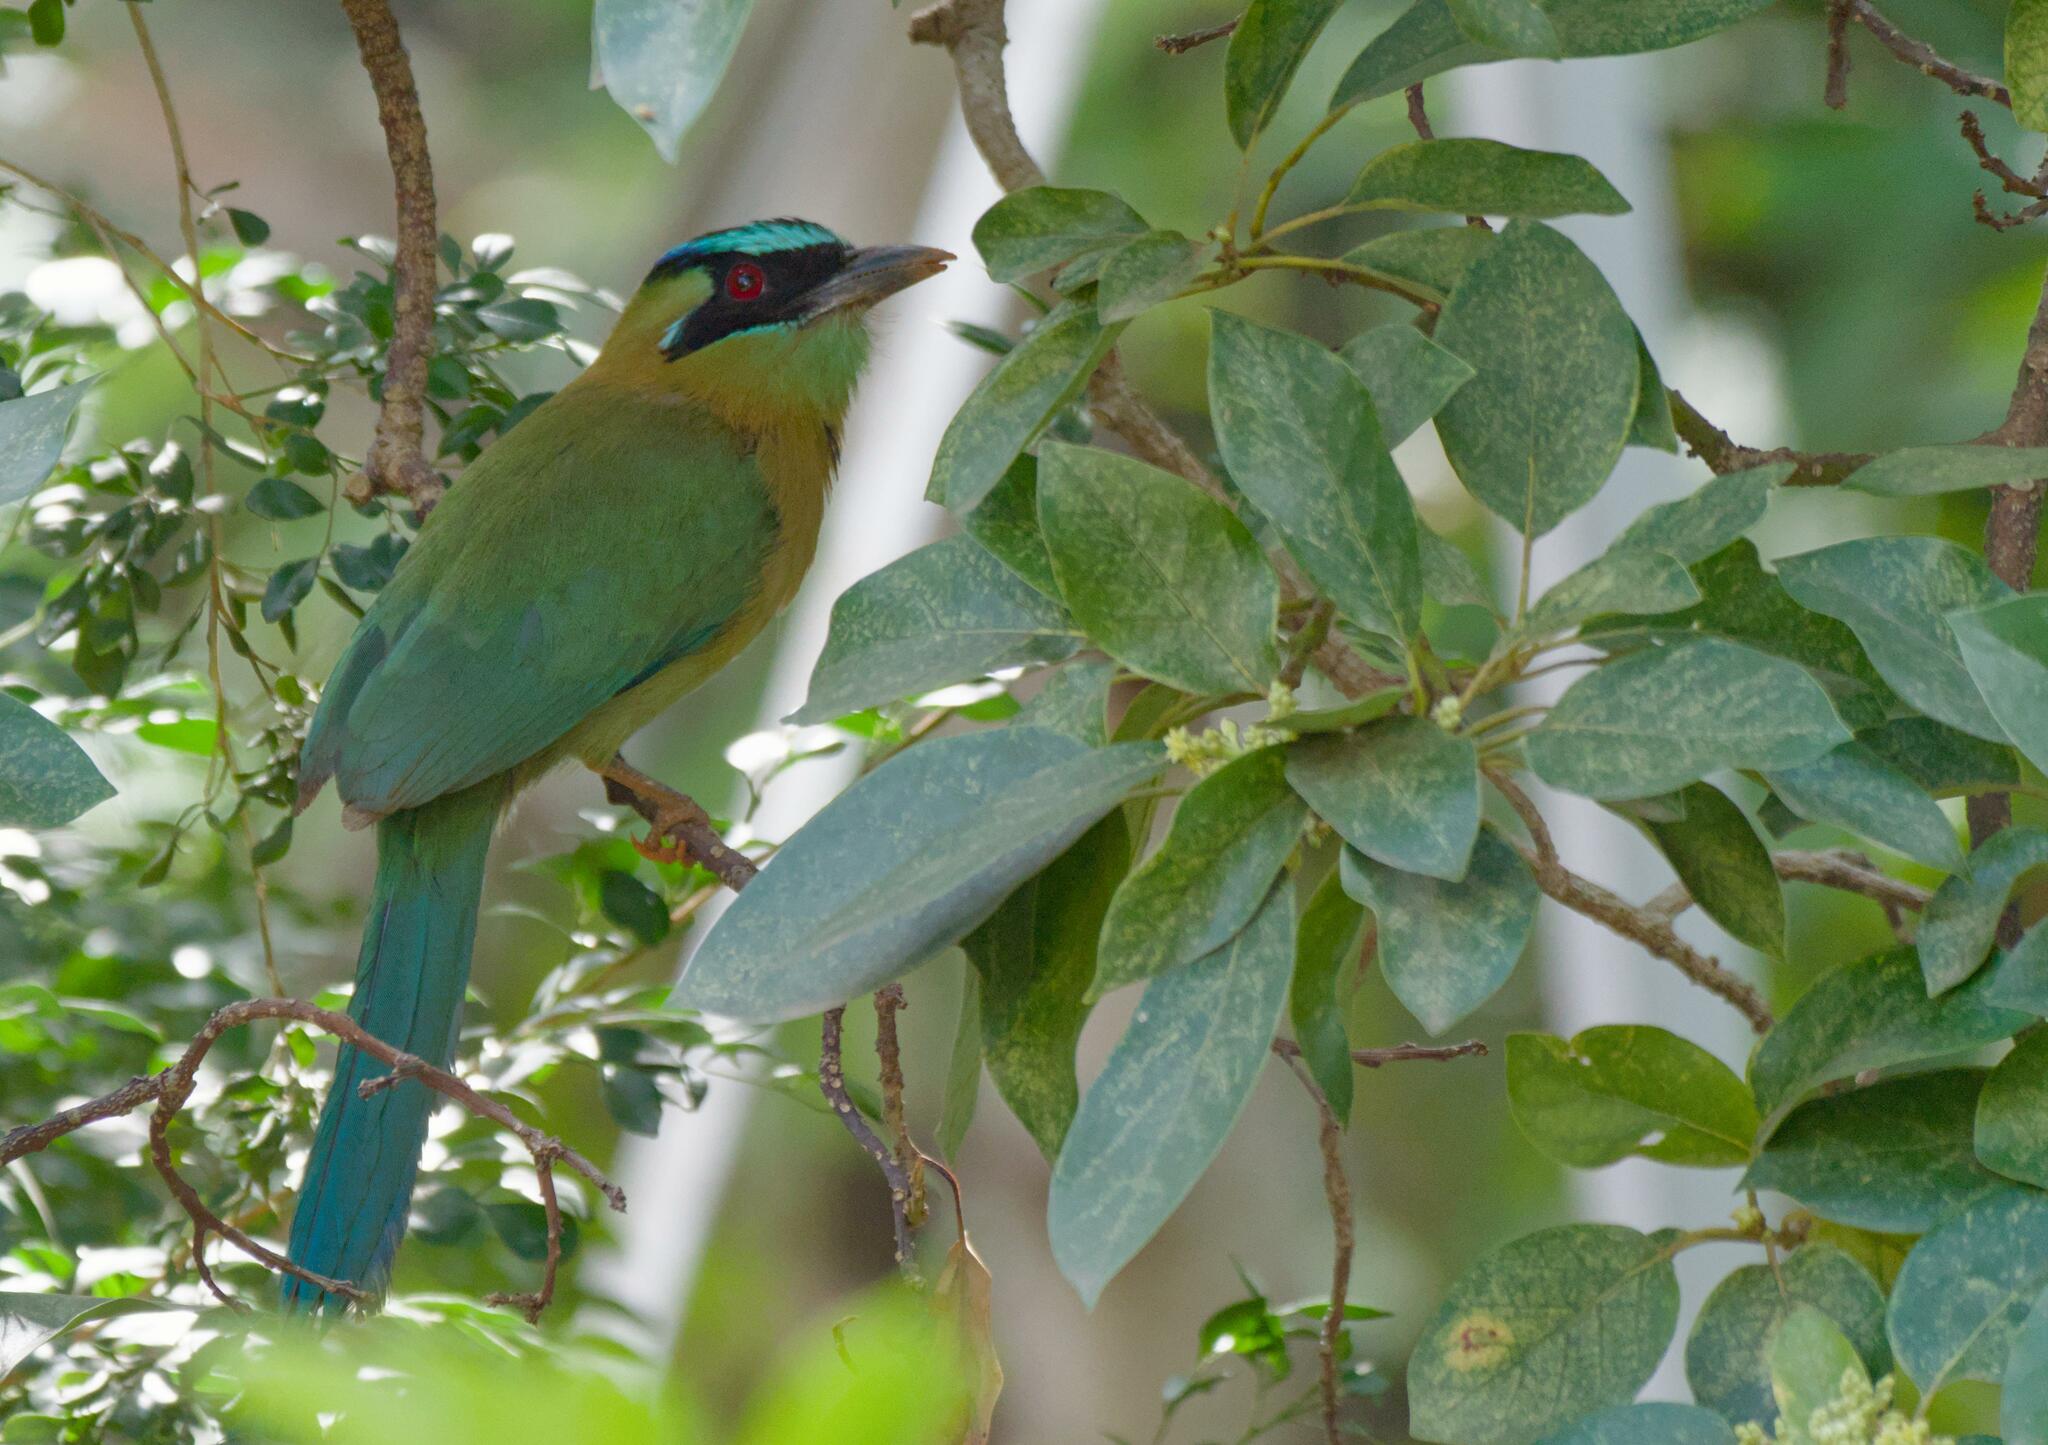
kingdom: Animalia
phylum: Chordata
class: Aves
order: Coraciiformes
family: Momotidae
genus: Momotus
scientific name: Momotus lessonii
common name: Lesson's motmot
